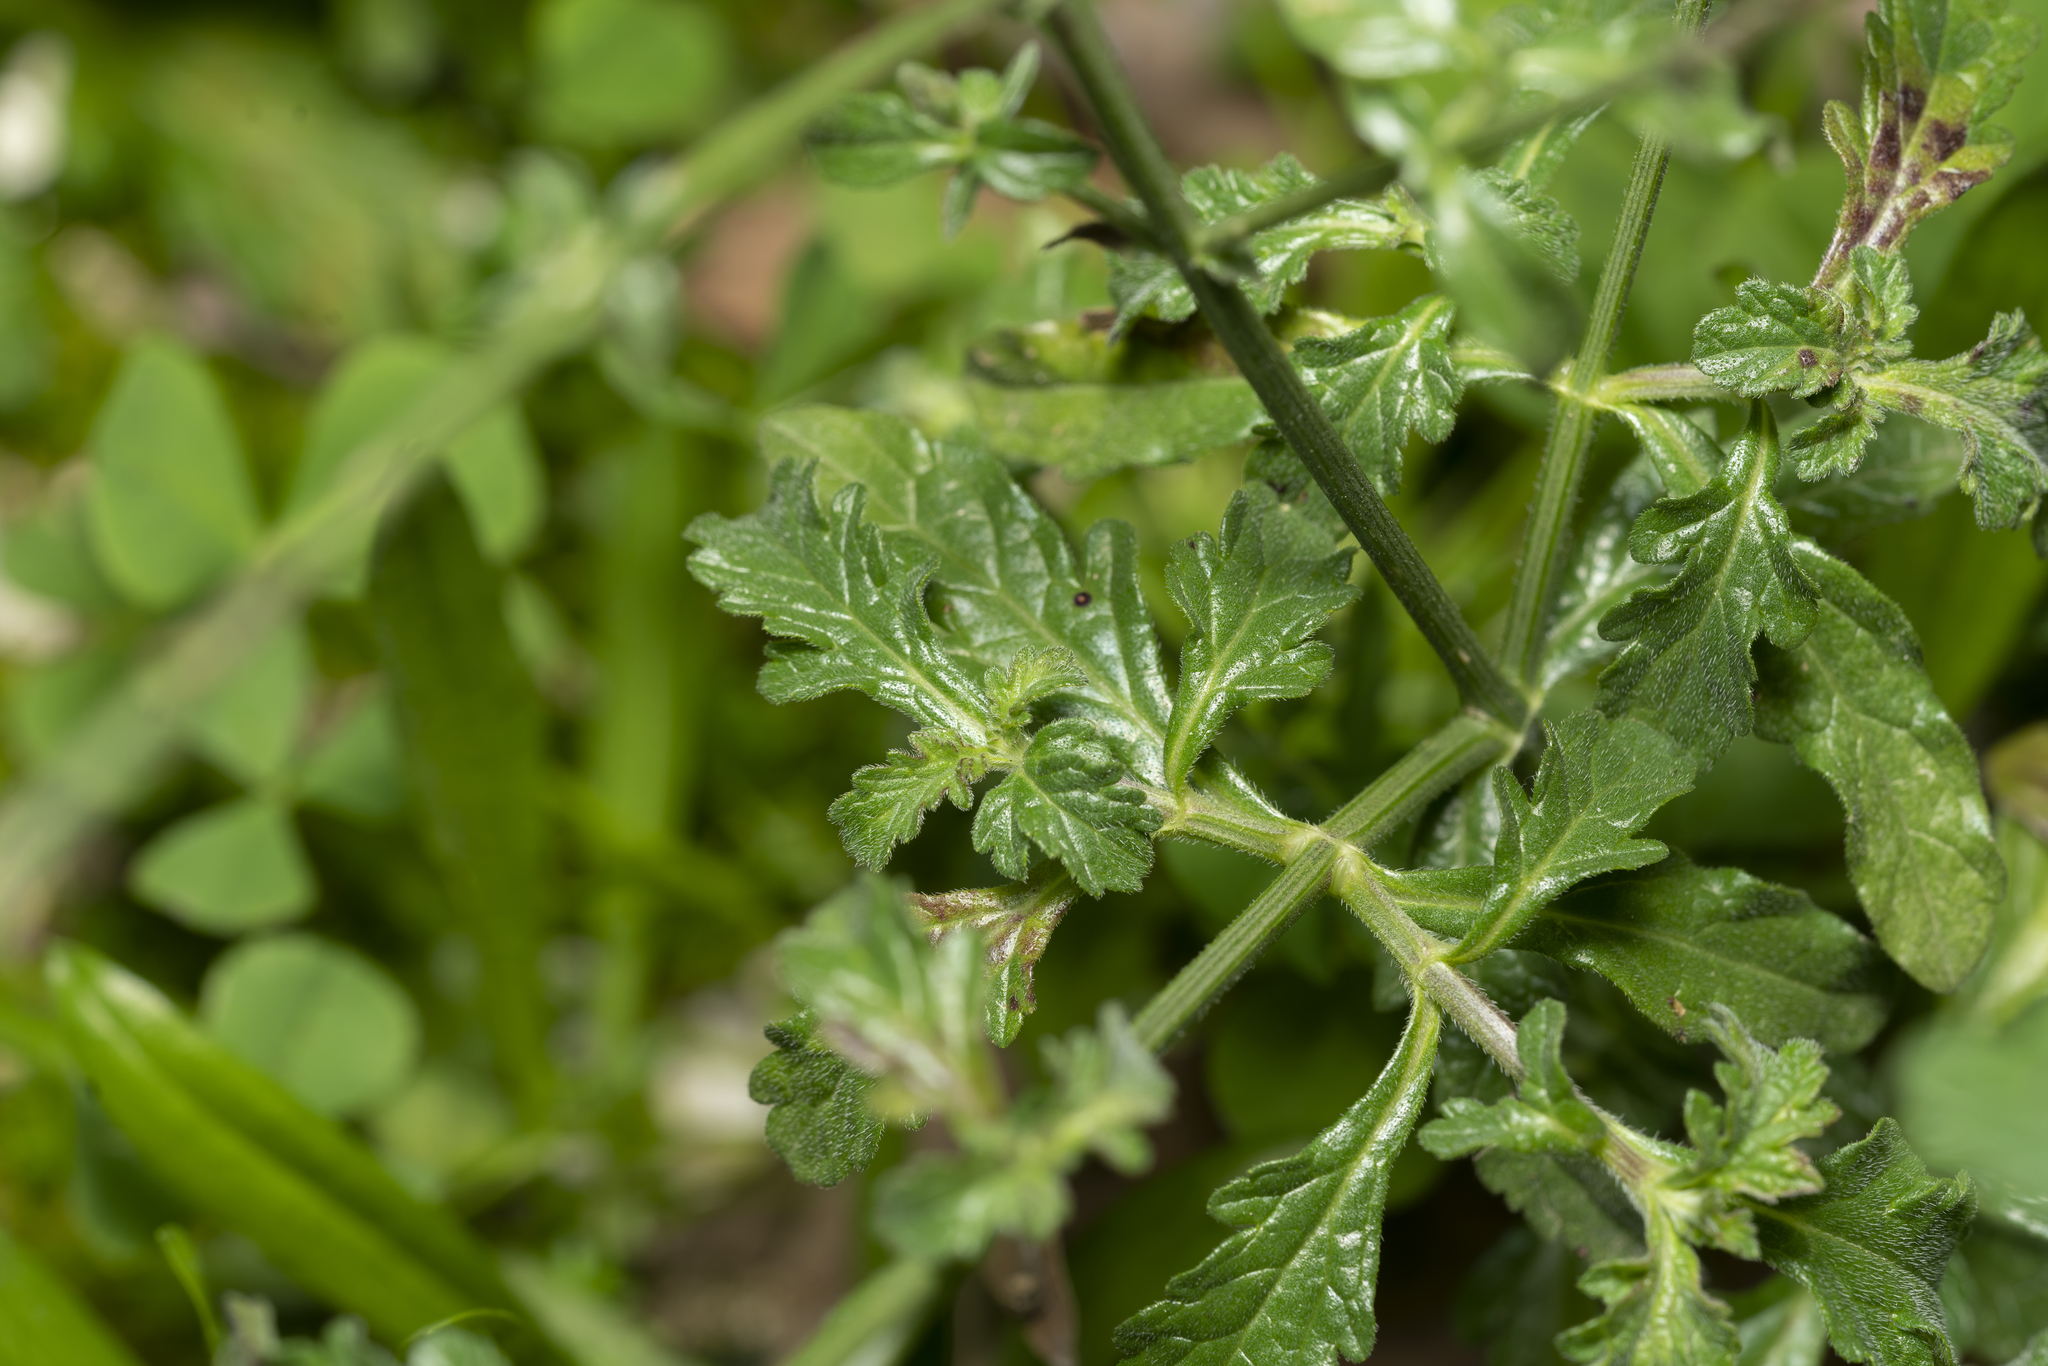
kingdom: Plantae
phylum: Tracheophyta
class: Magnoliopsida
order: Lamiales
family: Verbenaceae
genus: Verbena
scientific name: Verbena officinalis
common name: Vervain
